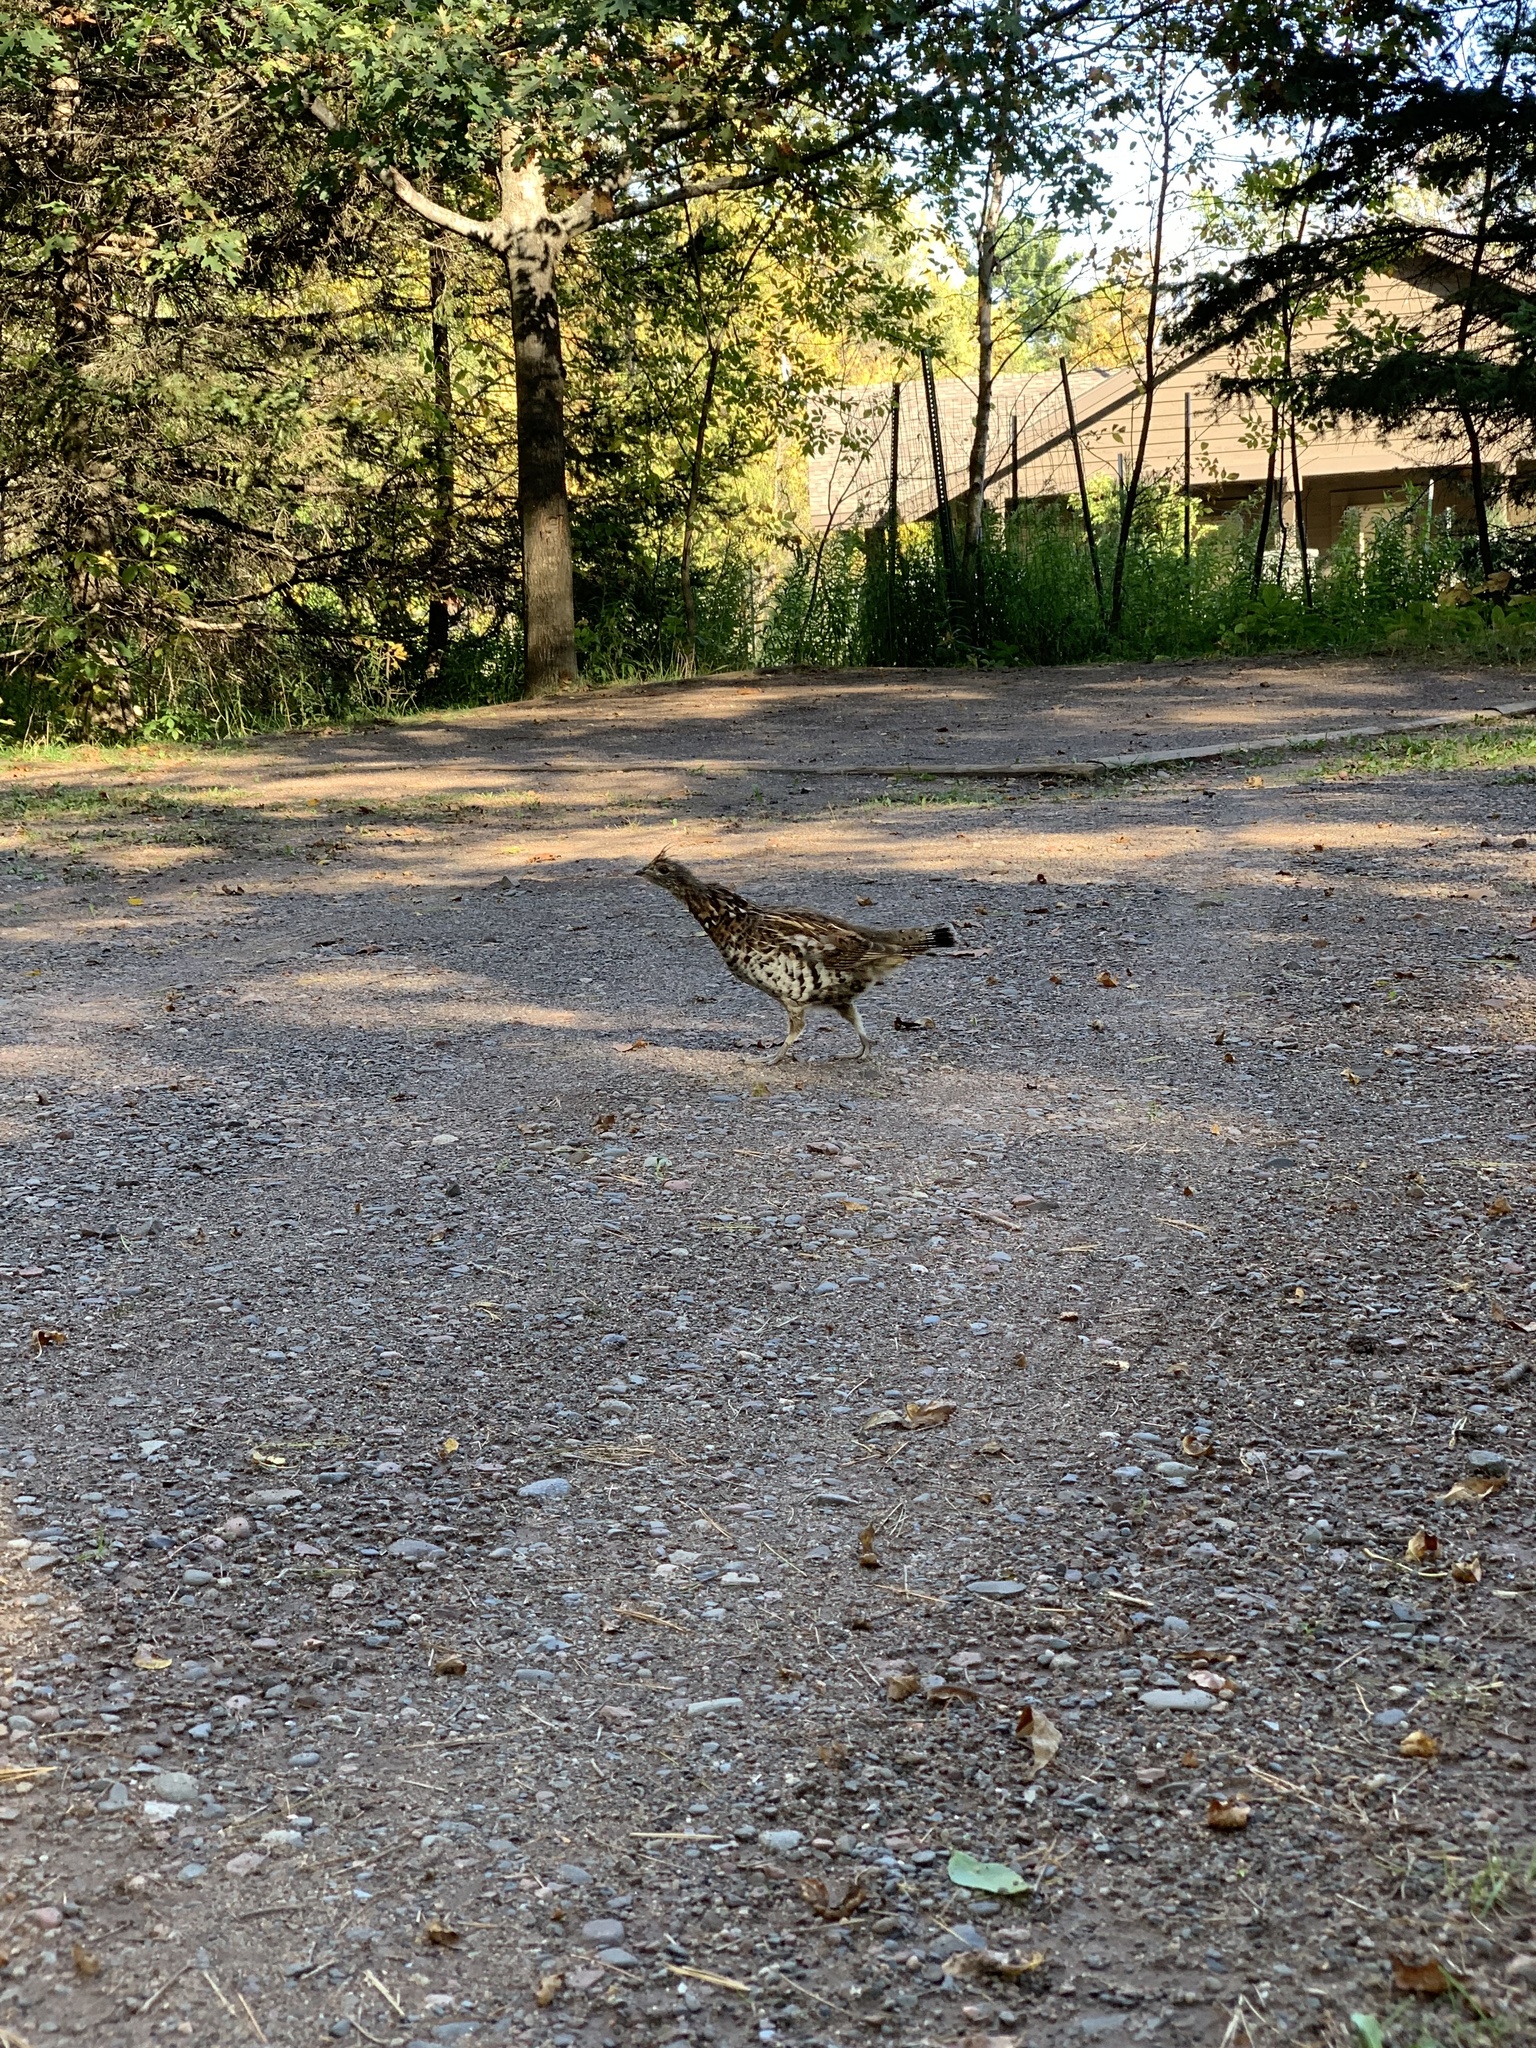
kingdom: Animalia
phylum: Chordata
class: Aves
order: Galliformes
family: Phasianidae
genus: Bonasa
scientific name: Bonasa umbellus
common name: Ruffed grouse
